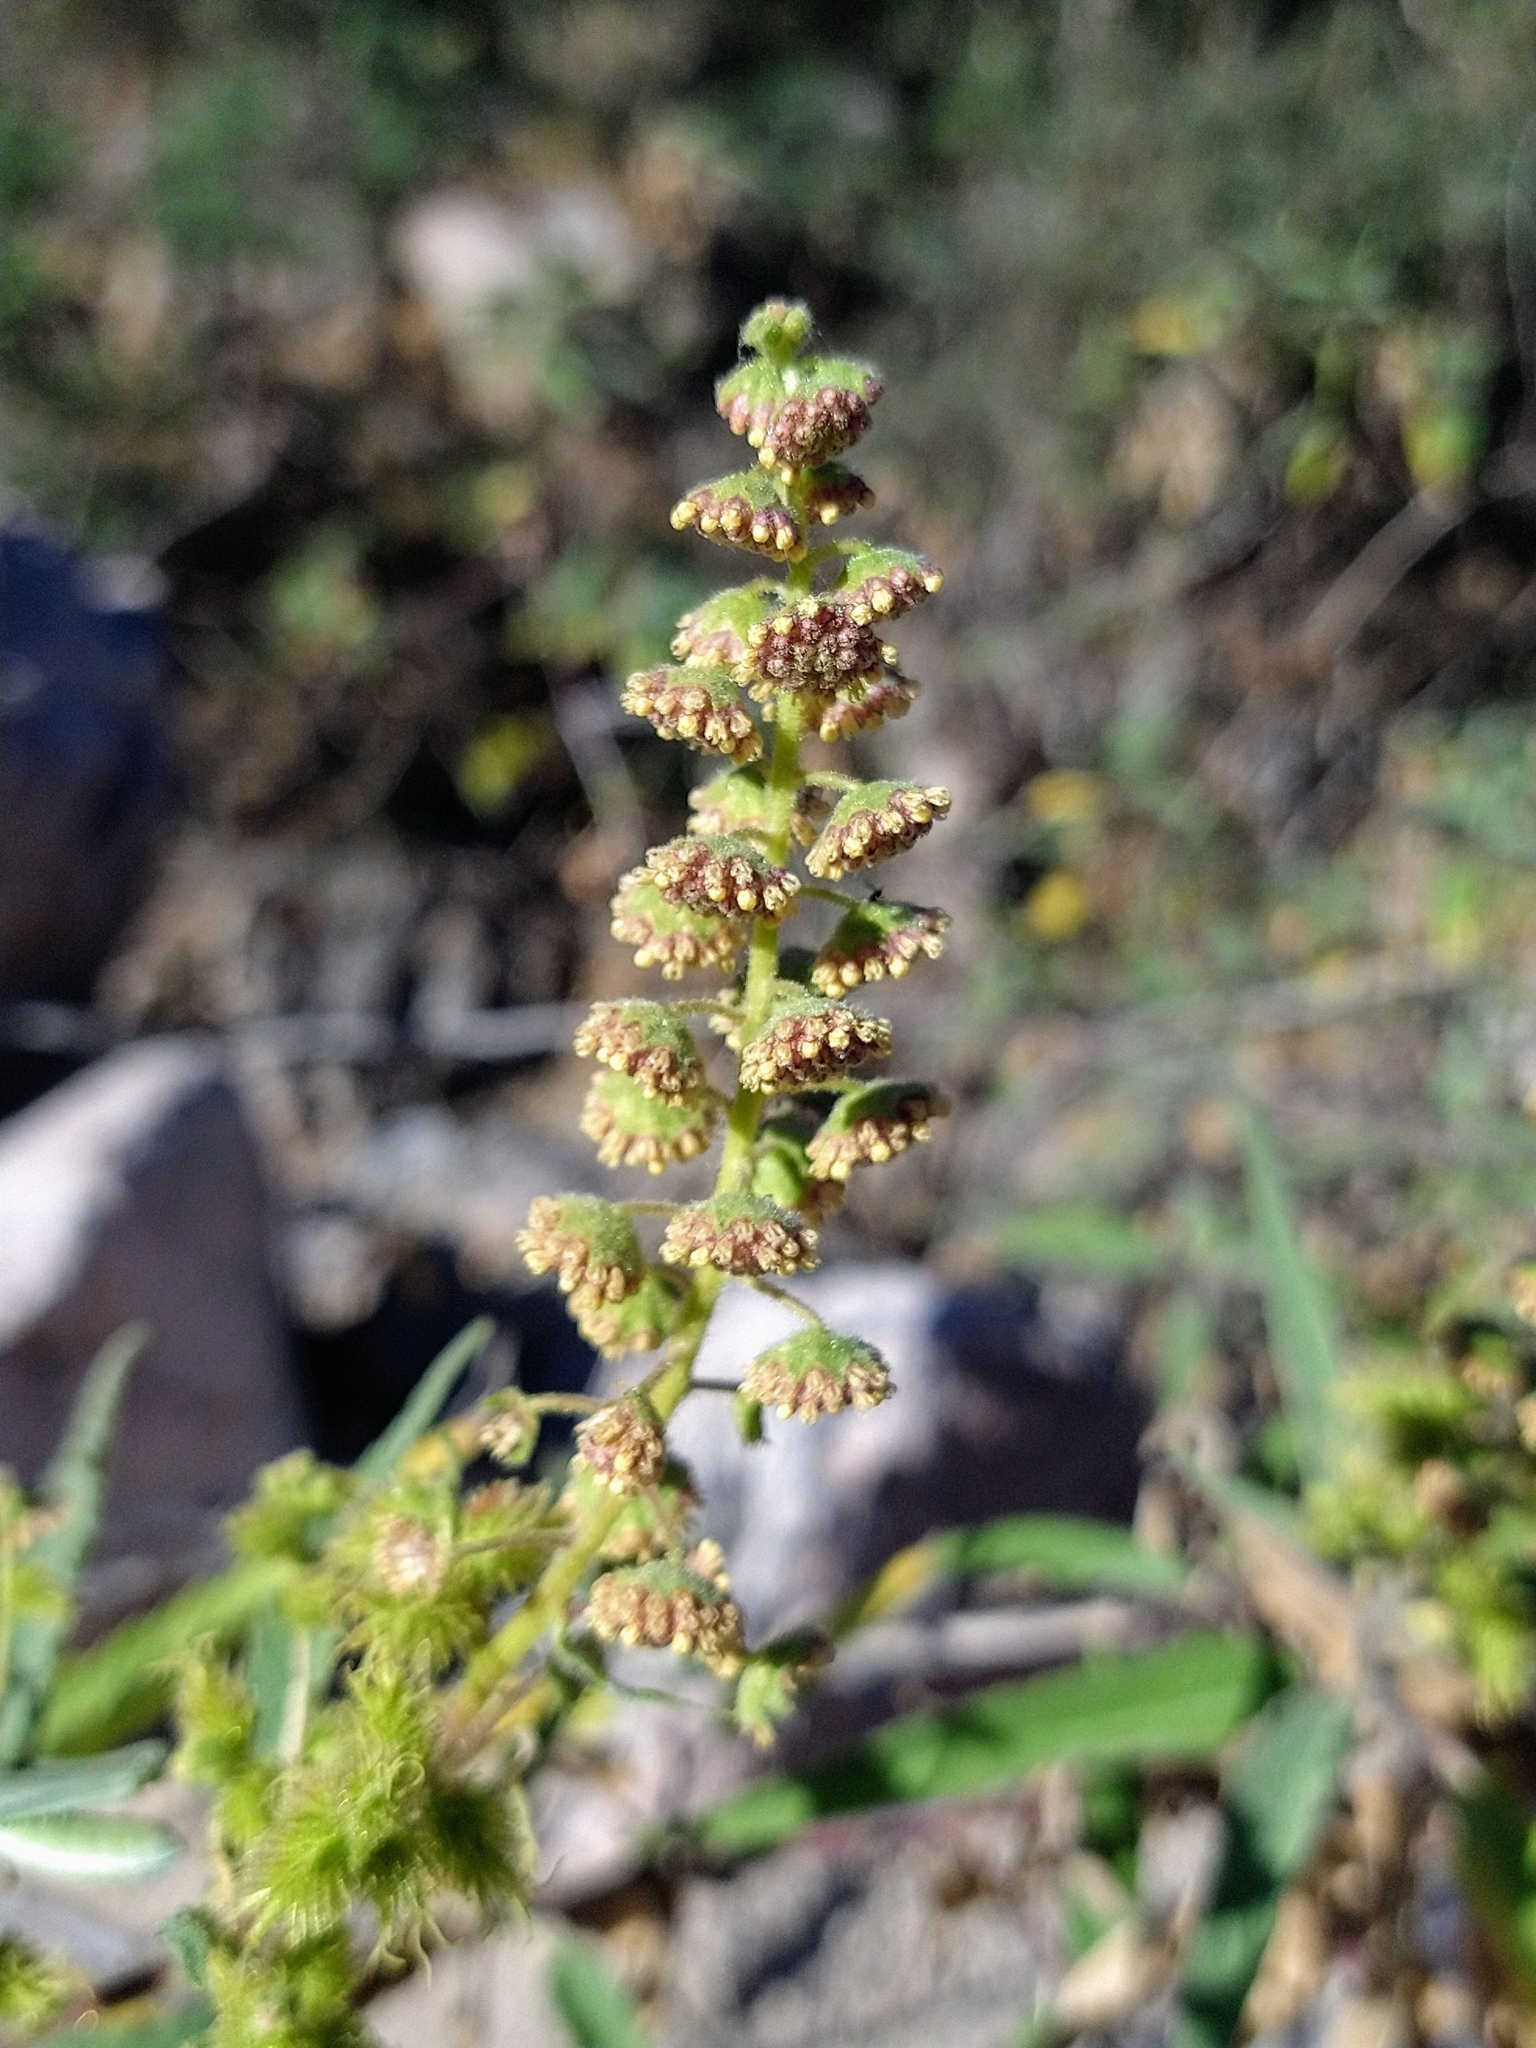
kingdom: Plantae
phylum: Tracheophyta
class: Magnoliopsida
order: Asterales
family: Asteraceae
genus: Ambrosia
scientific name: Ambrosia ambrosioides
